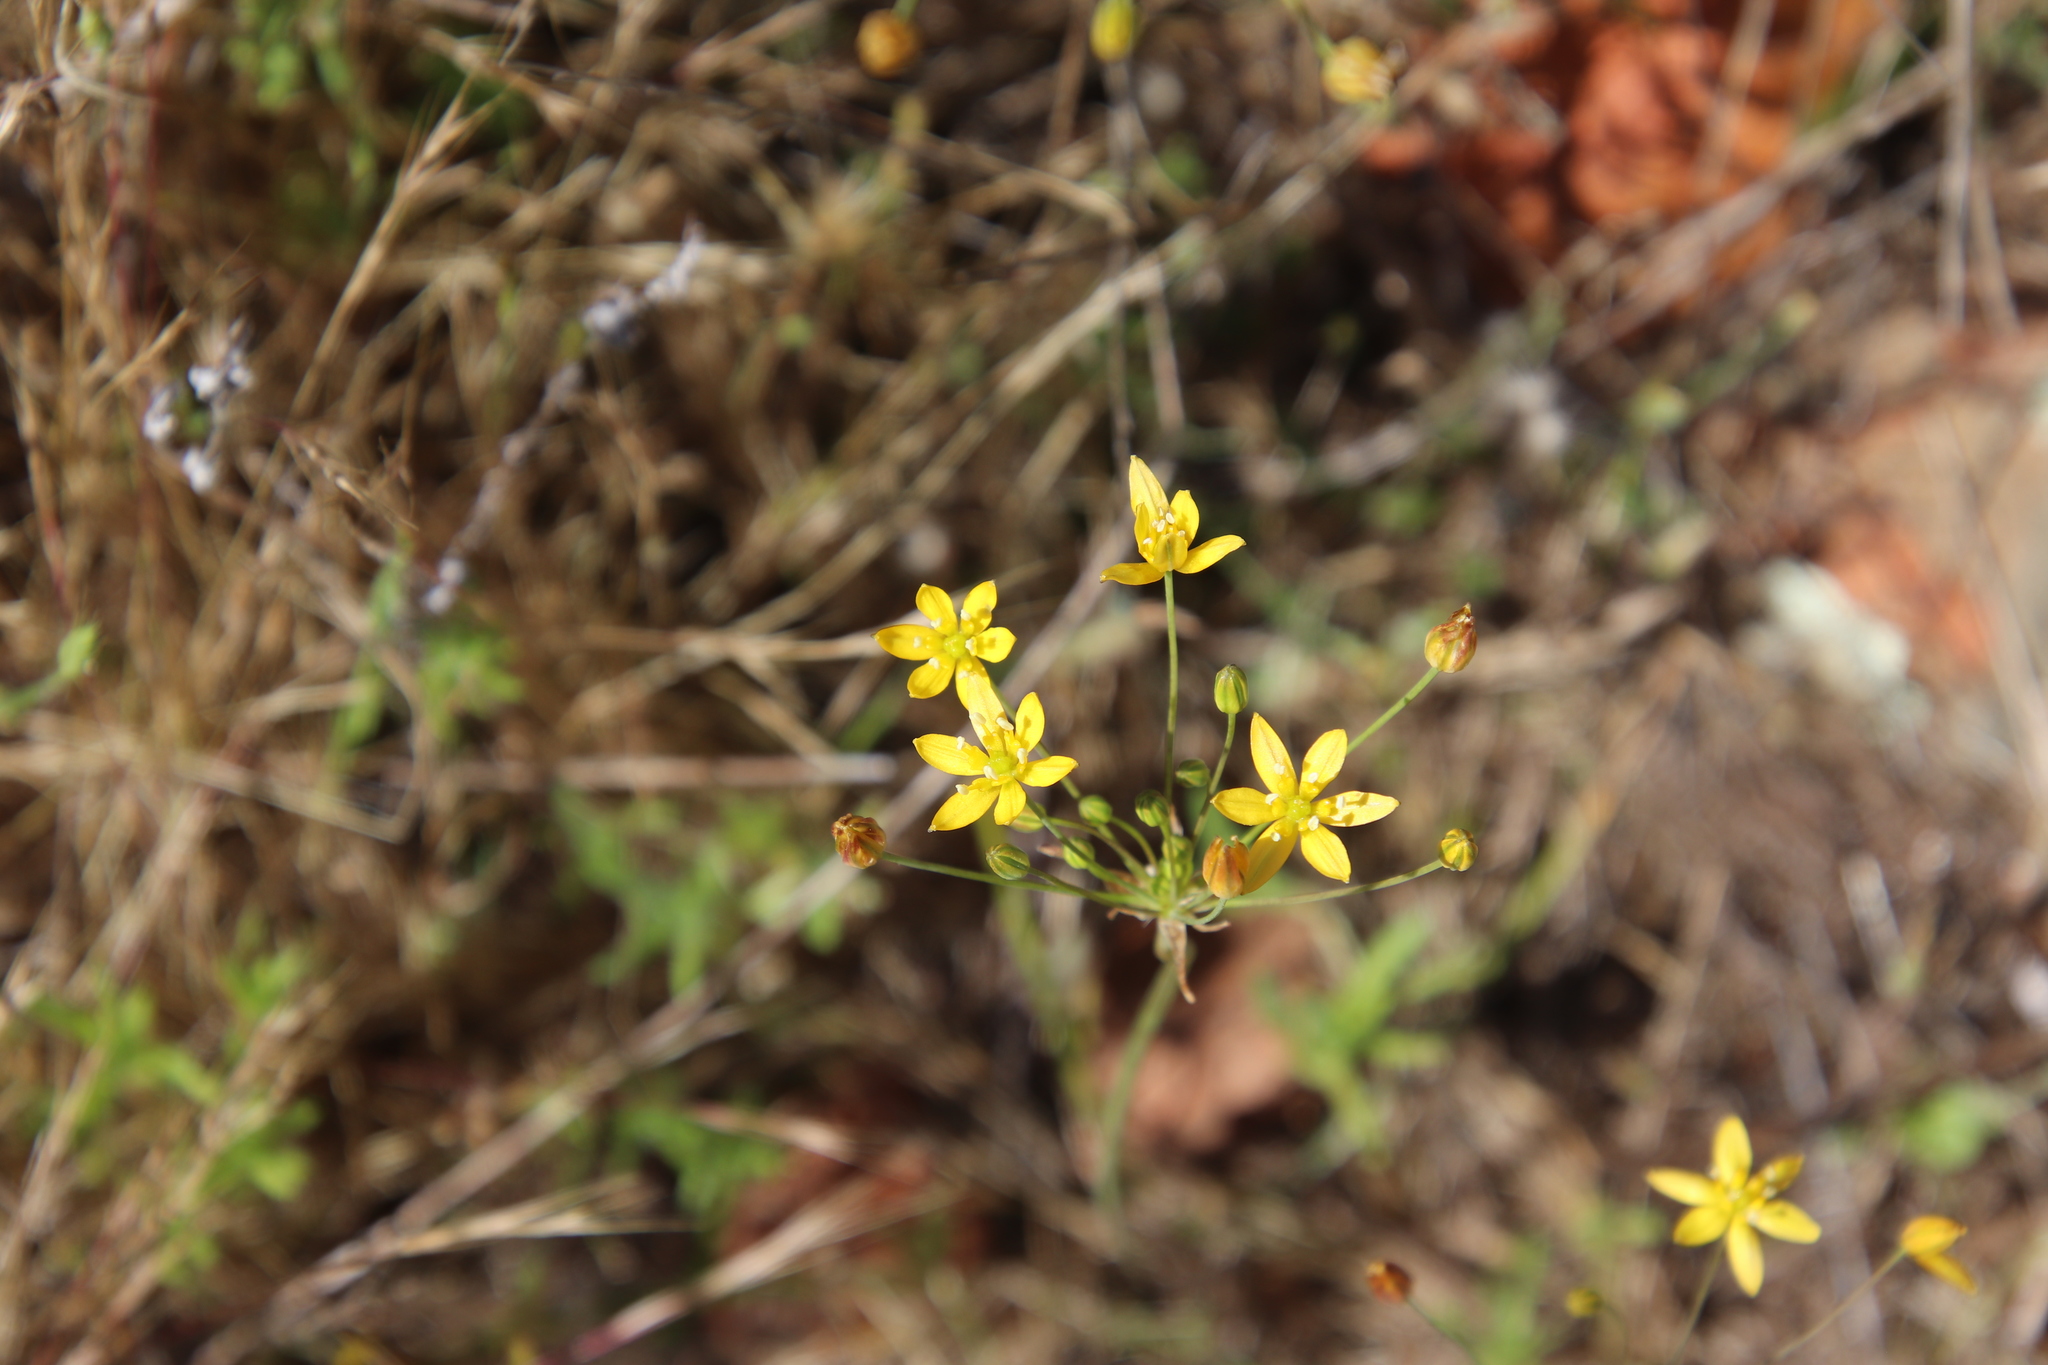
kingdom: Plantae
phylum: Tracheophyta
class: Liliopsida
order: Asparagales
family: Asparagaceae
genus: Bloomeria
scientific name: Bloomeria clevelandii
